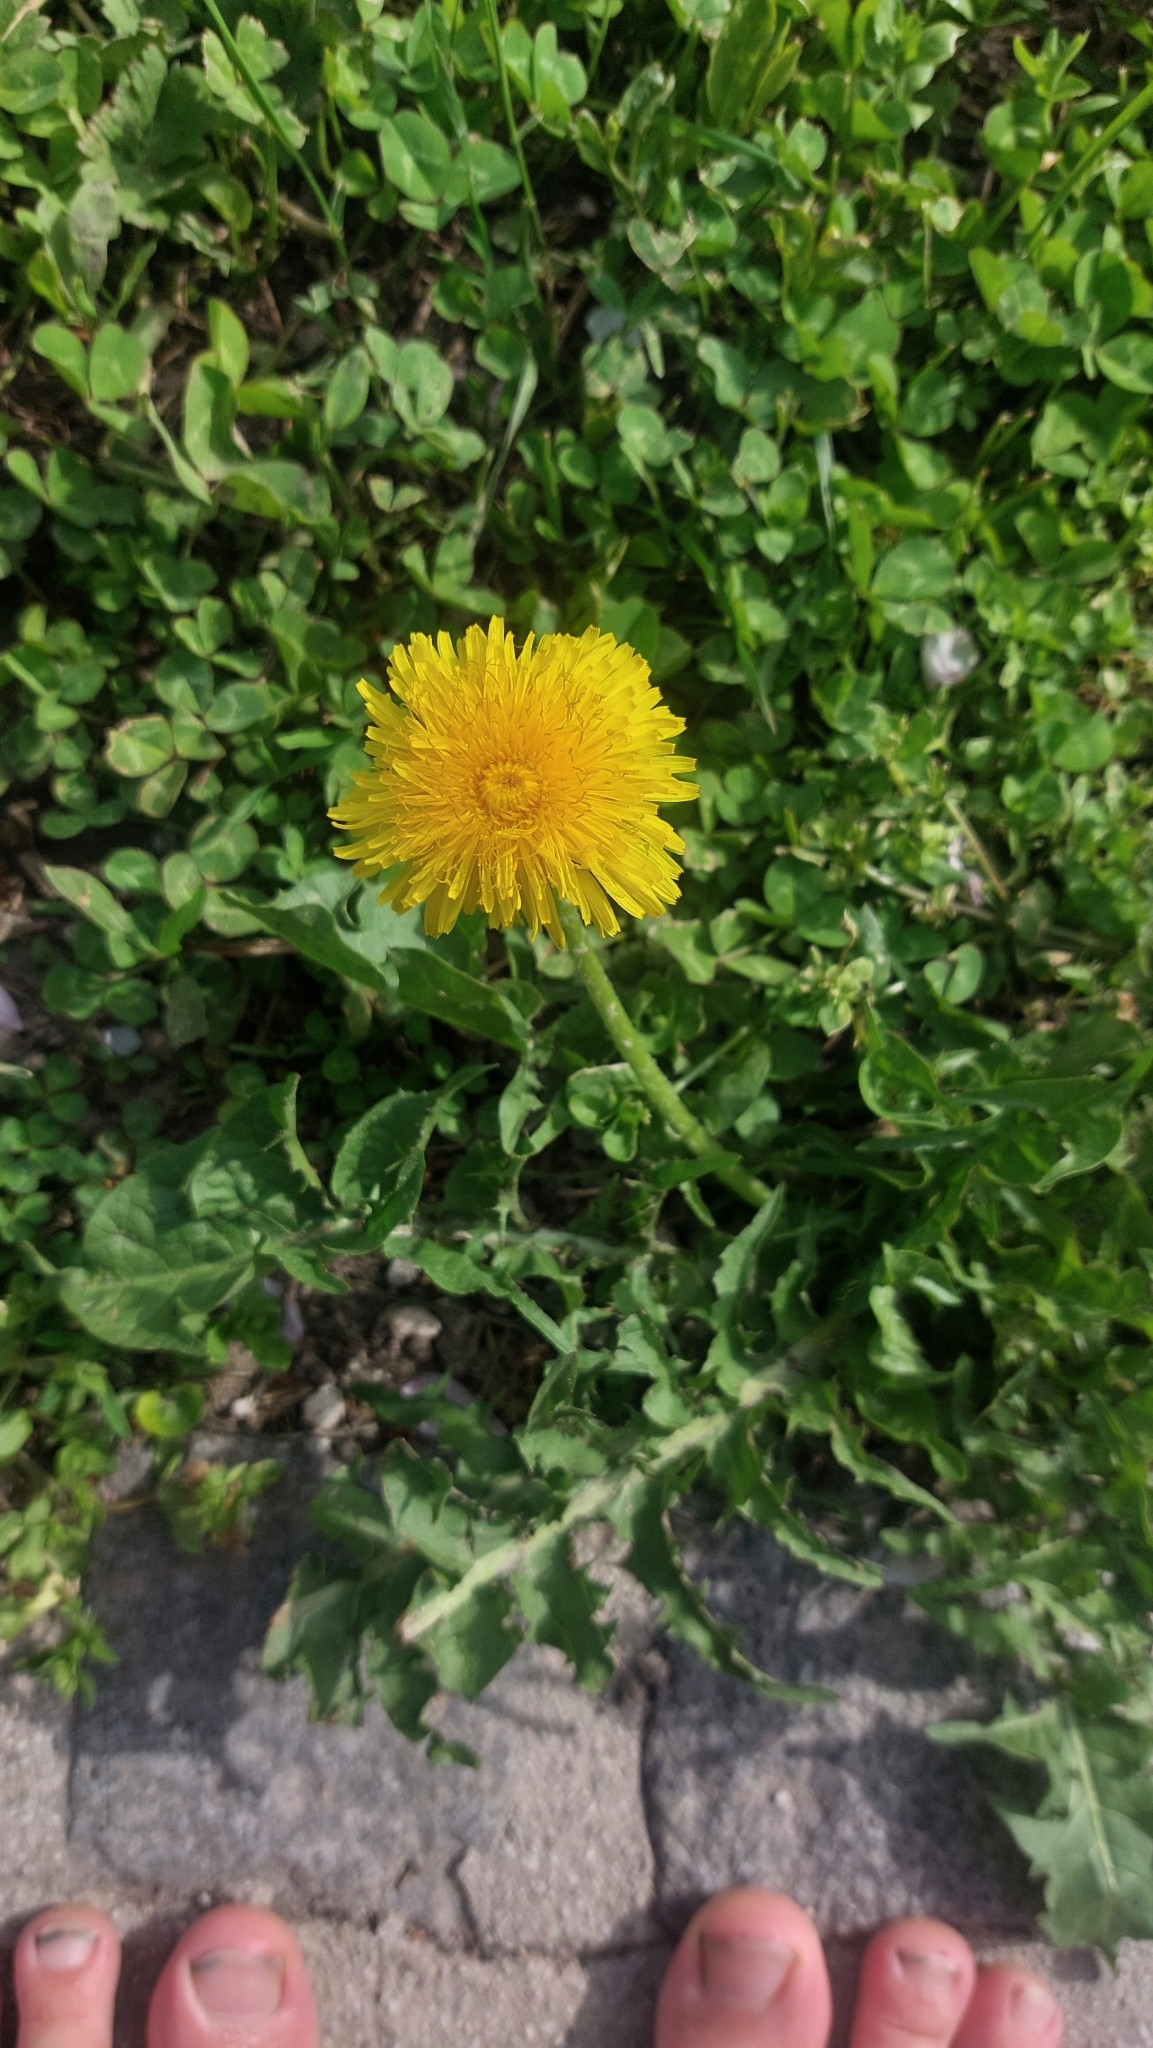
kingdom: Plantae
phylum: Tracheophyta
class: Magnoliopsida
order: Asterales
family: Asteraceae
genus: Taraxacum
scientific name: Taraxacum
